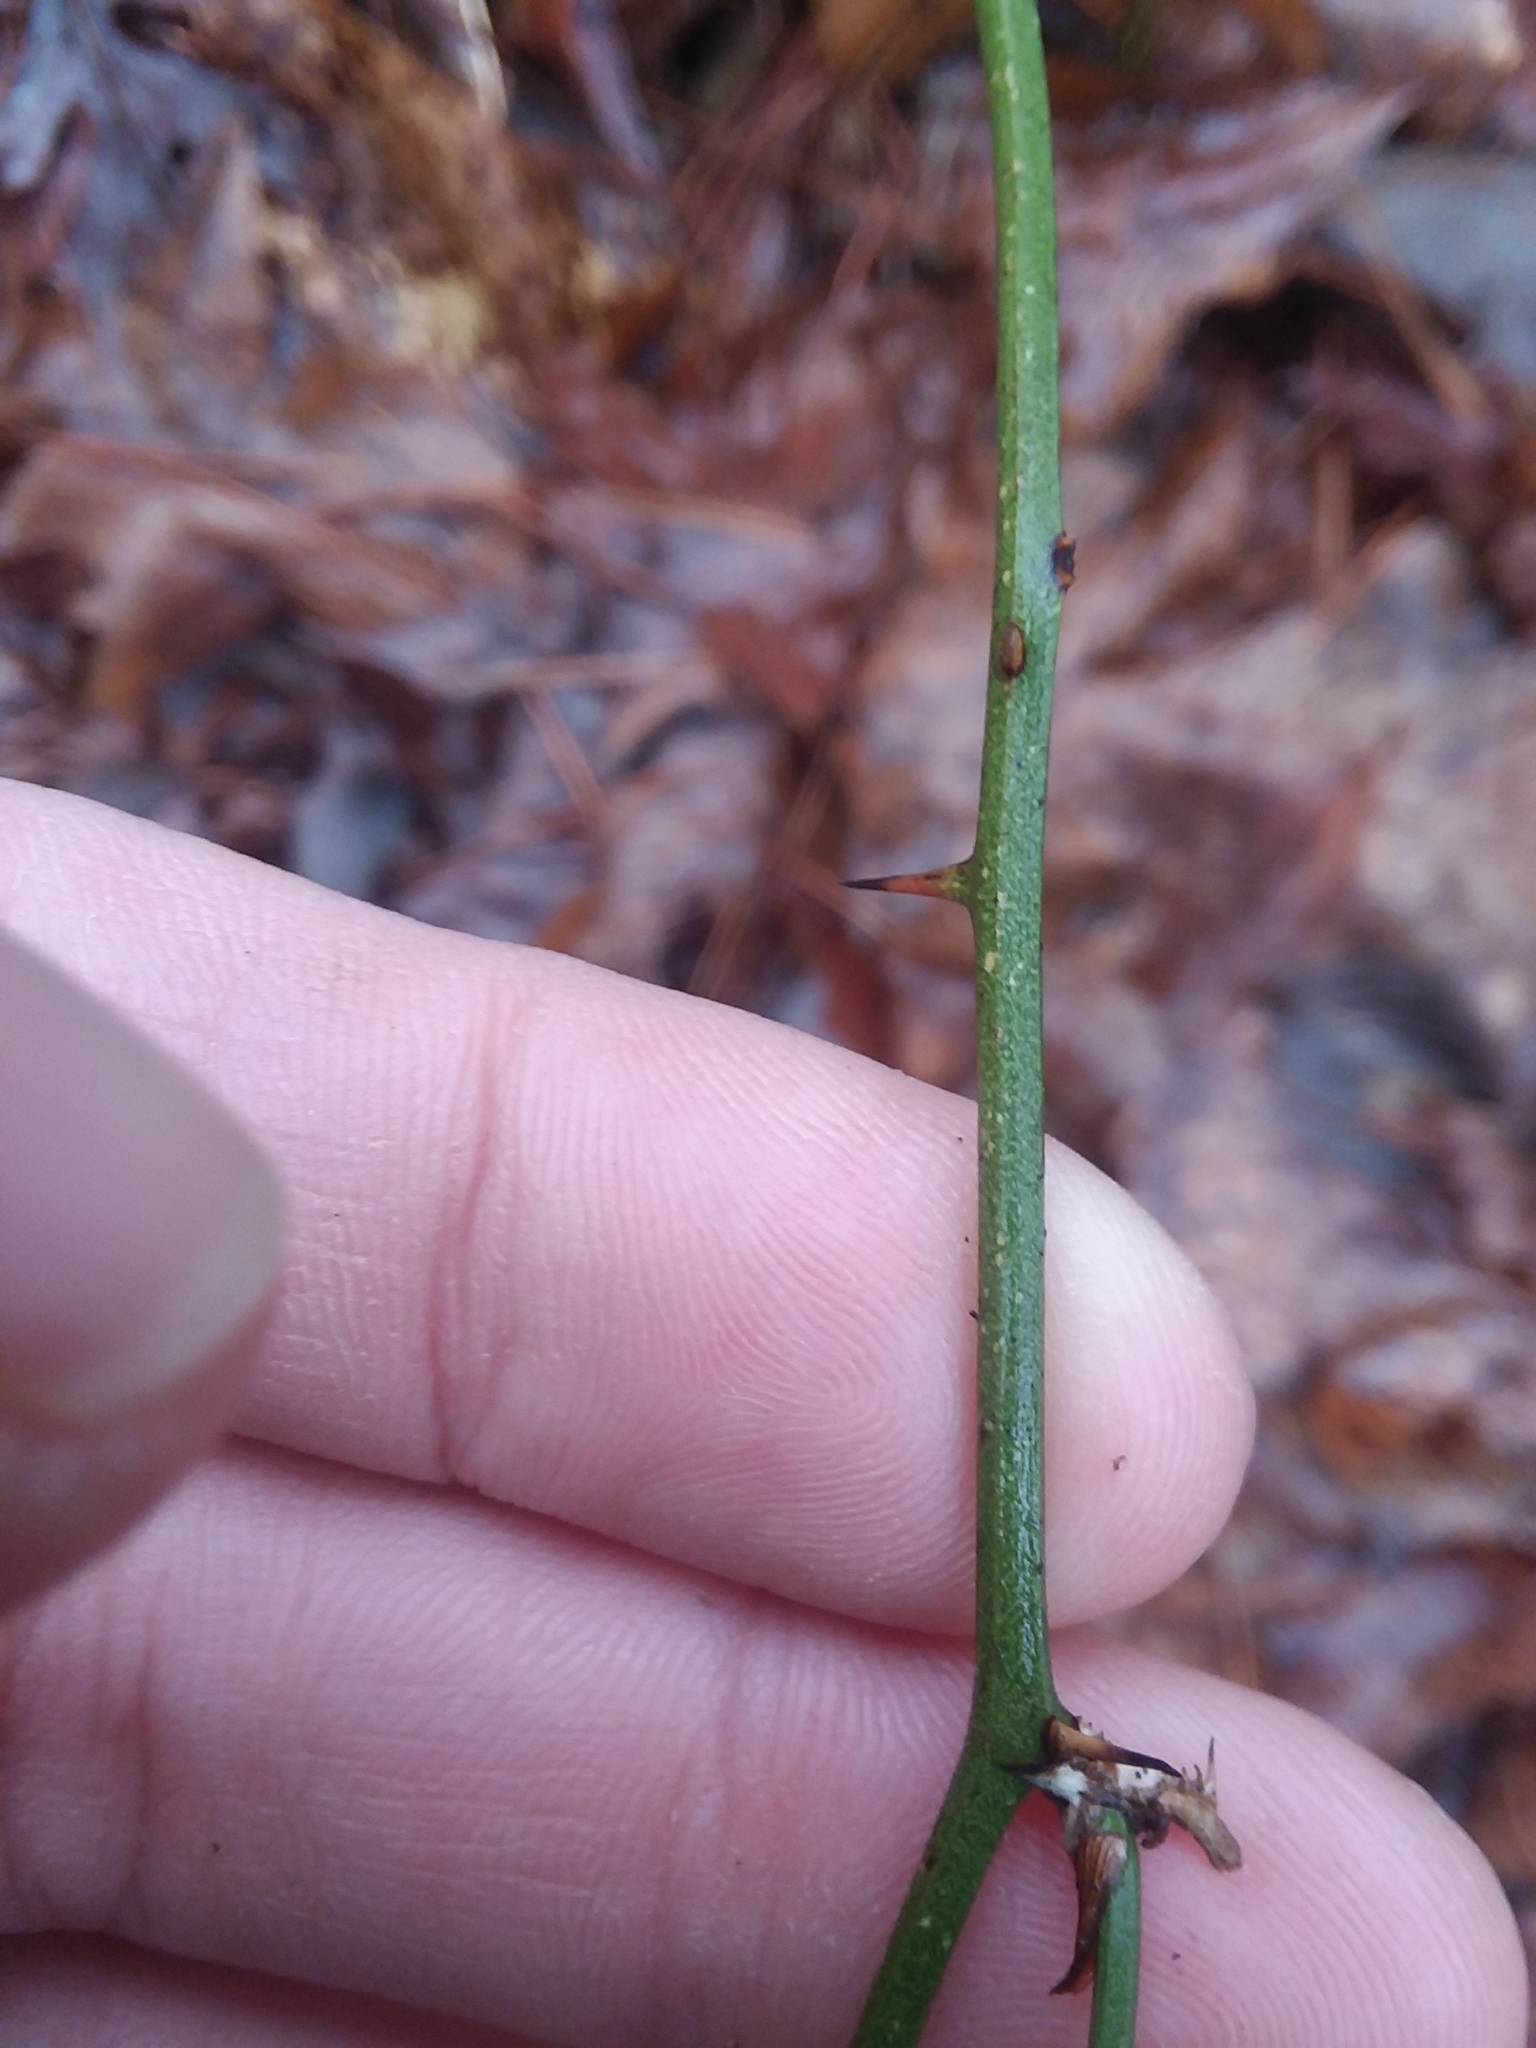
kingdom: Plantae
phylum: Tracheophyta
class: Liliopsida
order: Liliales
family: Smilacaceae
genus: Smilax
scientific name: Smilax bona-nox
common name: Catbrier
